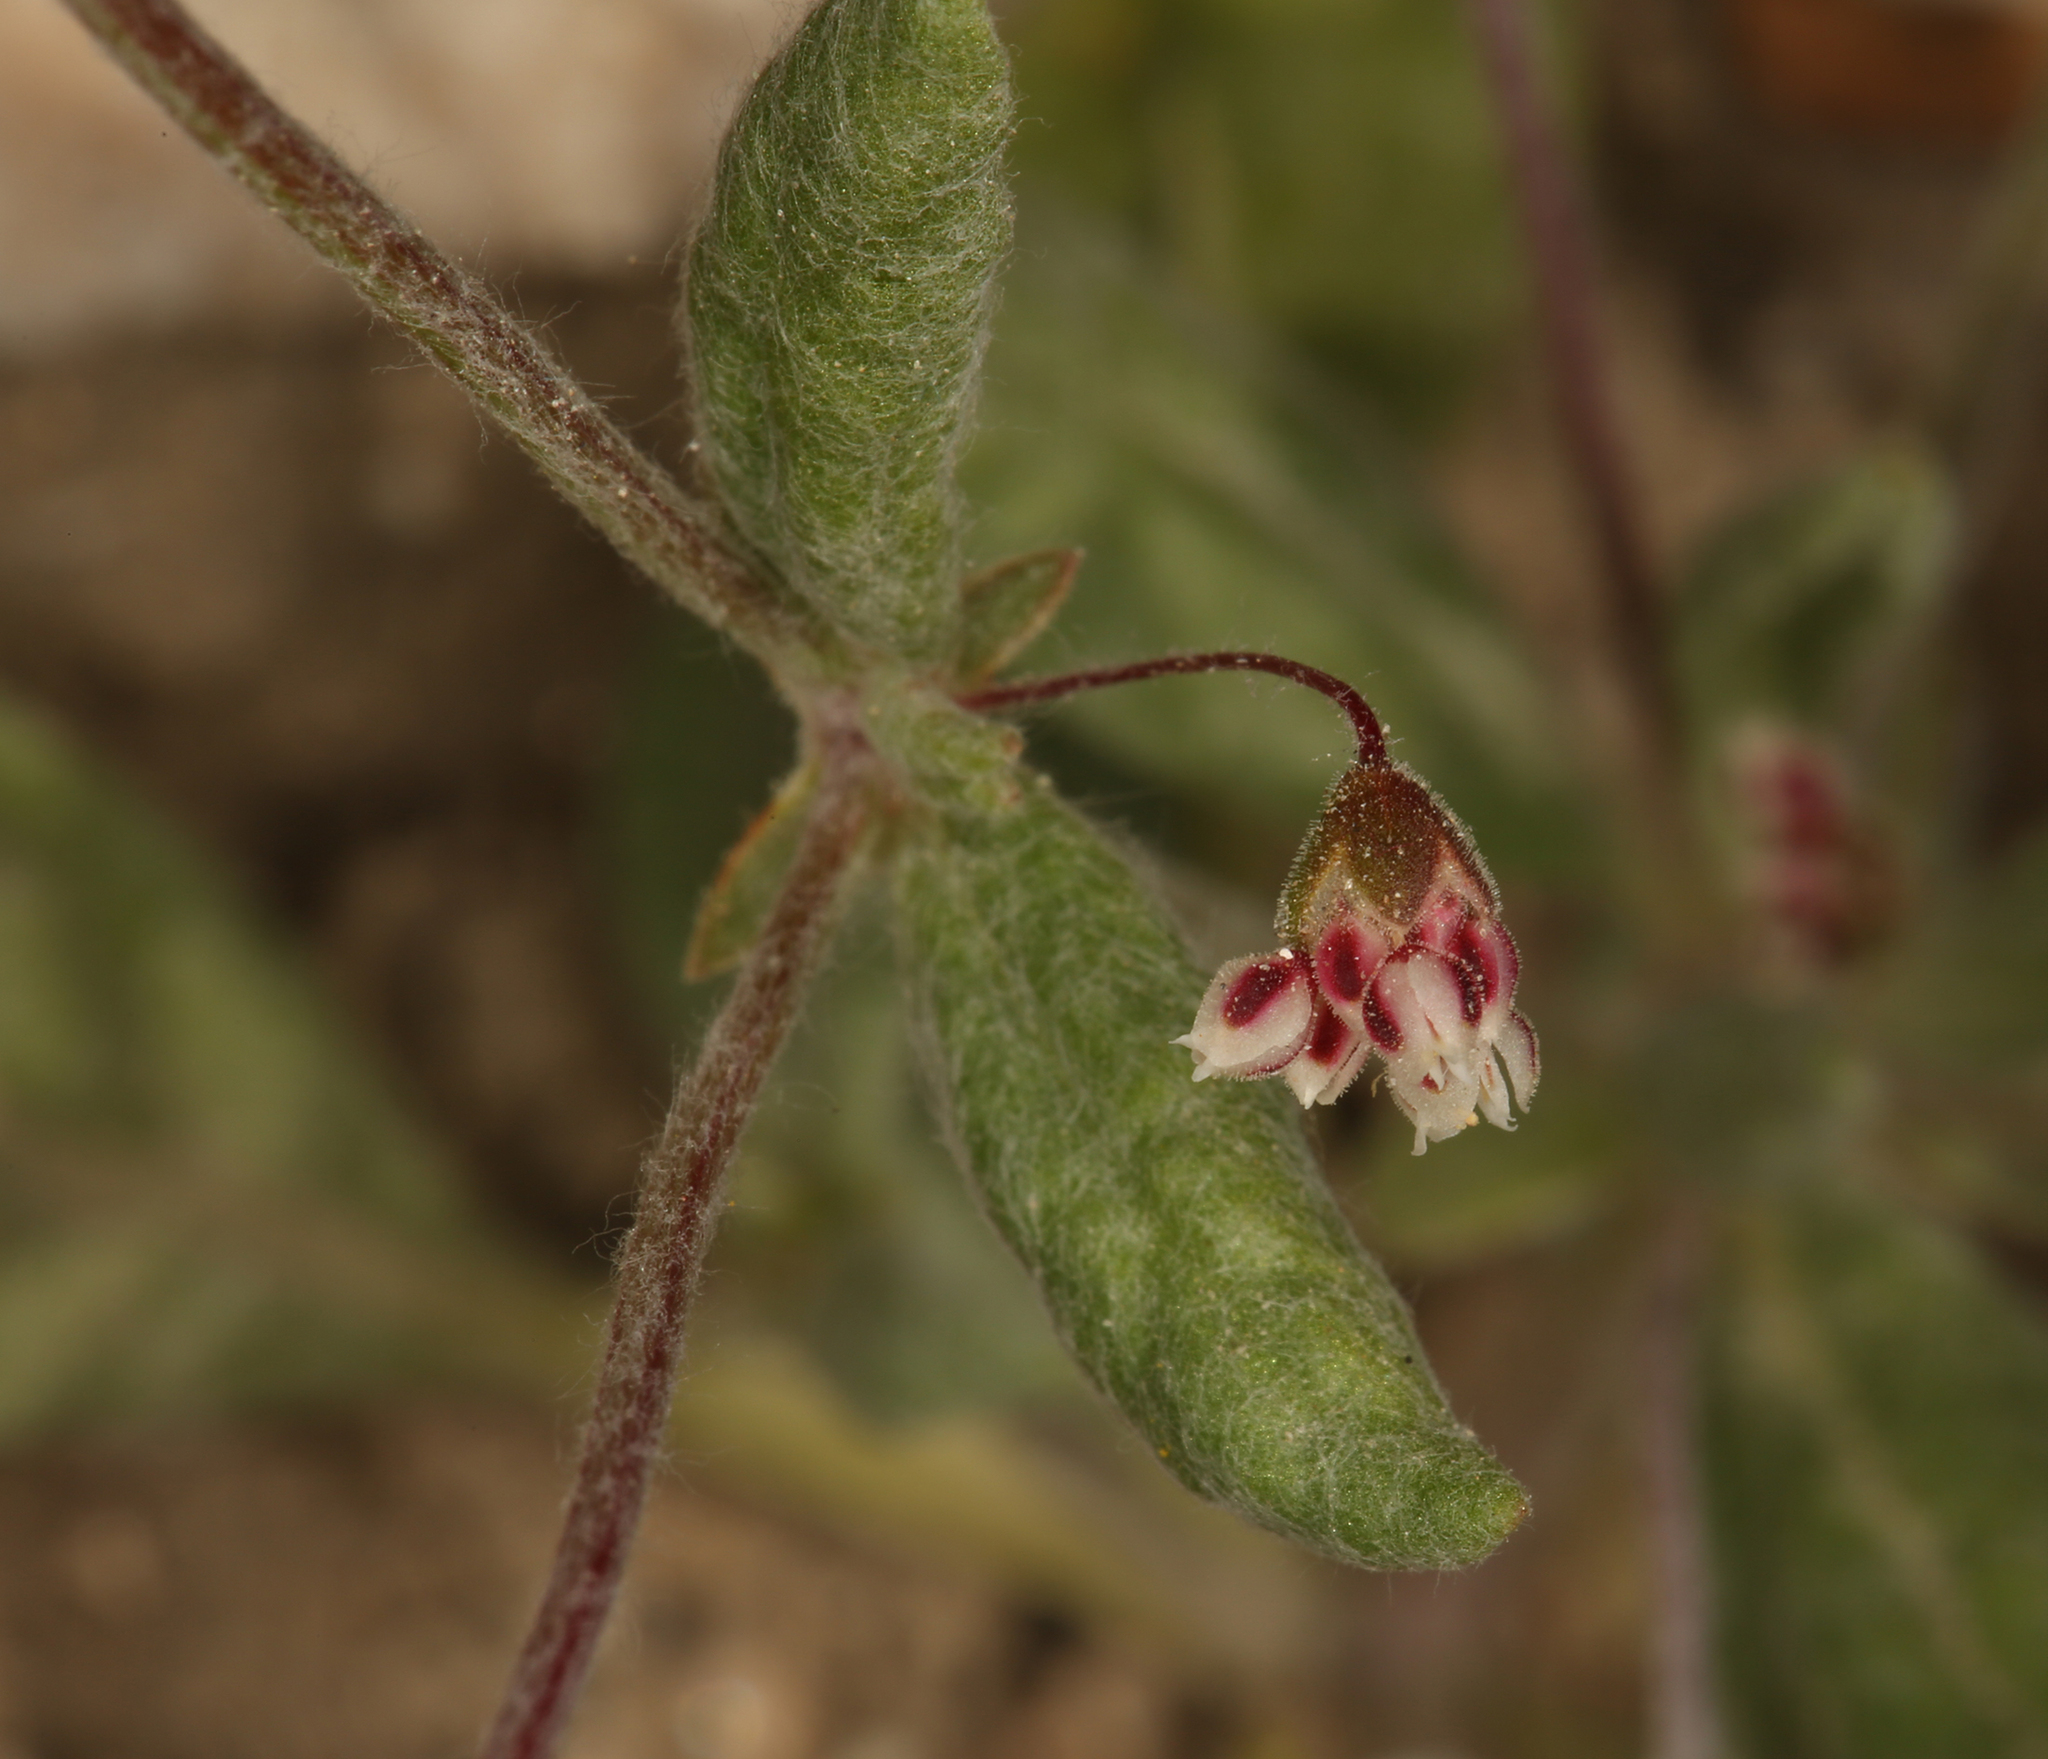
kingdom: Plantae
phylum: Tracheophyta
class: Magnoliopsida
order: Caryophyllales
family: Polygonaceae
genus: Eriogonum
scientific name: Eriogonum maculatum
